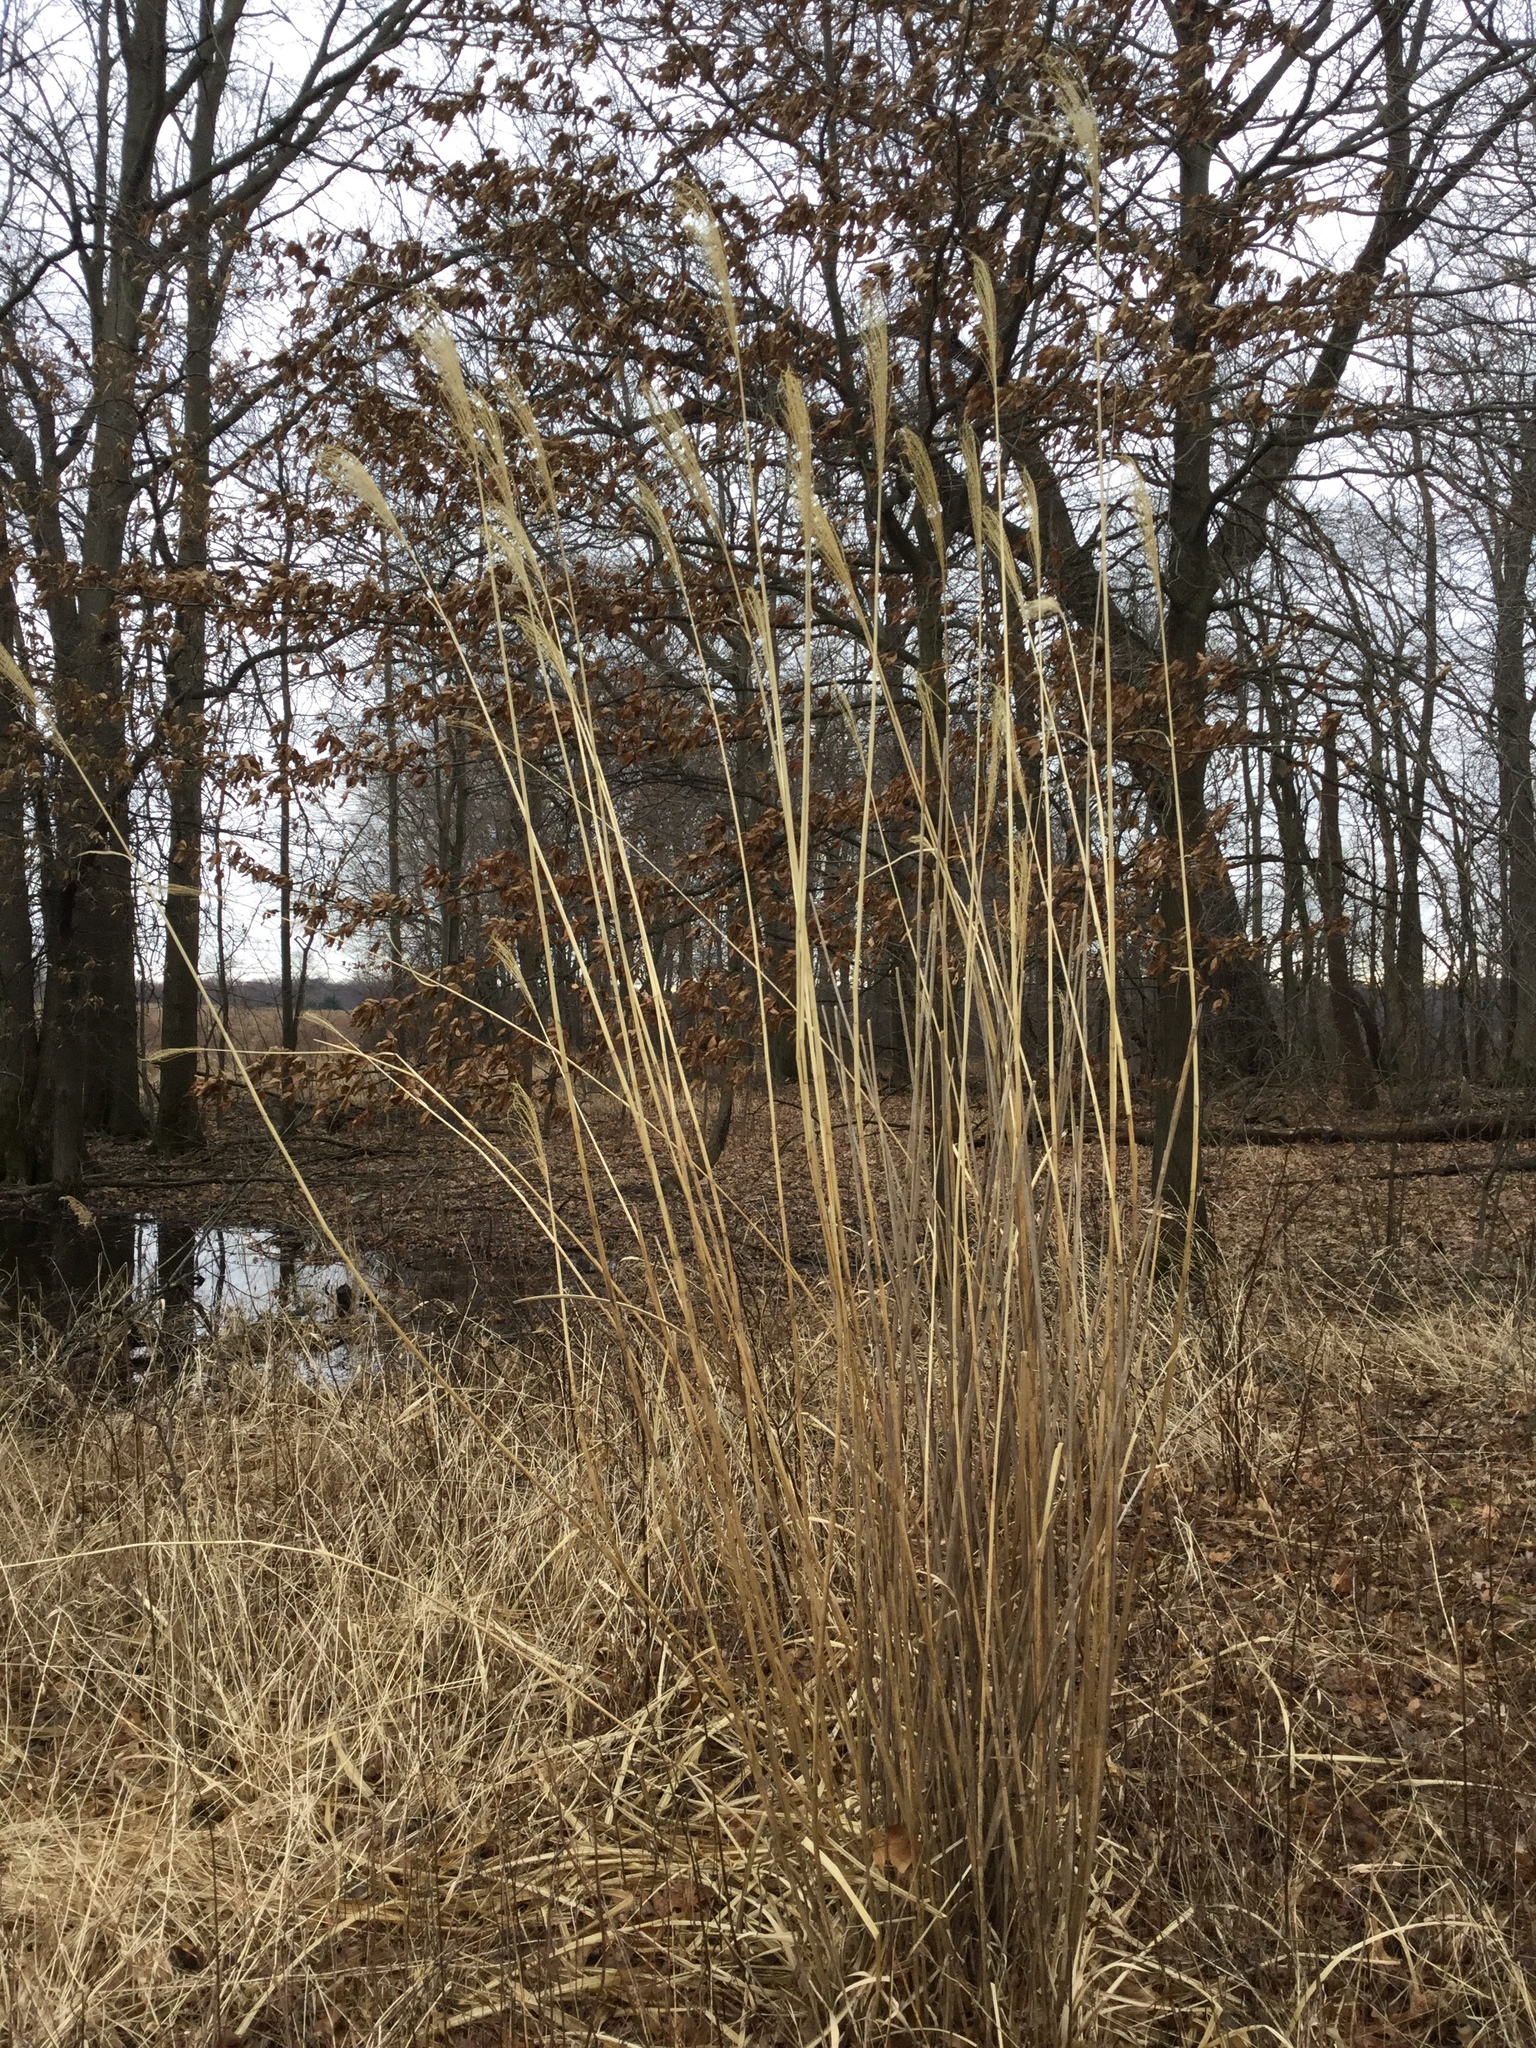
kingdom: Plantae
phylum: Tracheophyta
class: Liliopsida
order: Poales
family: Poaceae
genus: Miscanthus
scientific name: Miscanthus sinensis
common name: Chinese silvergrass
